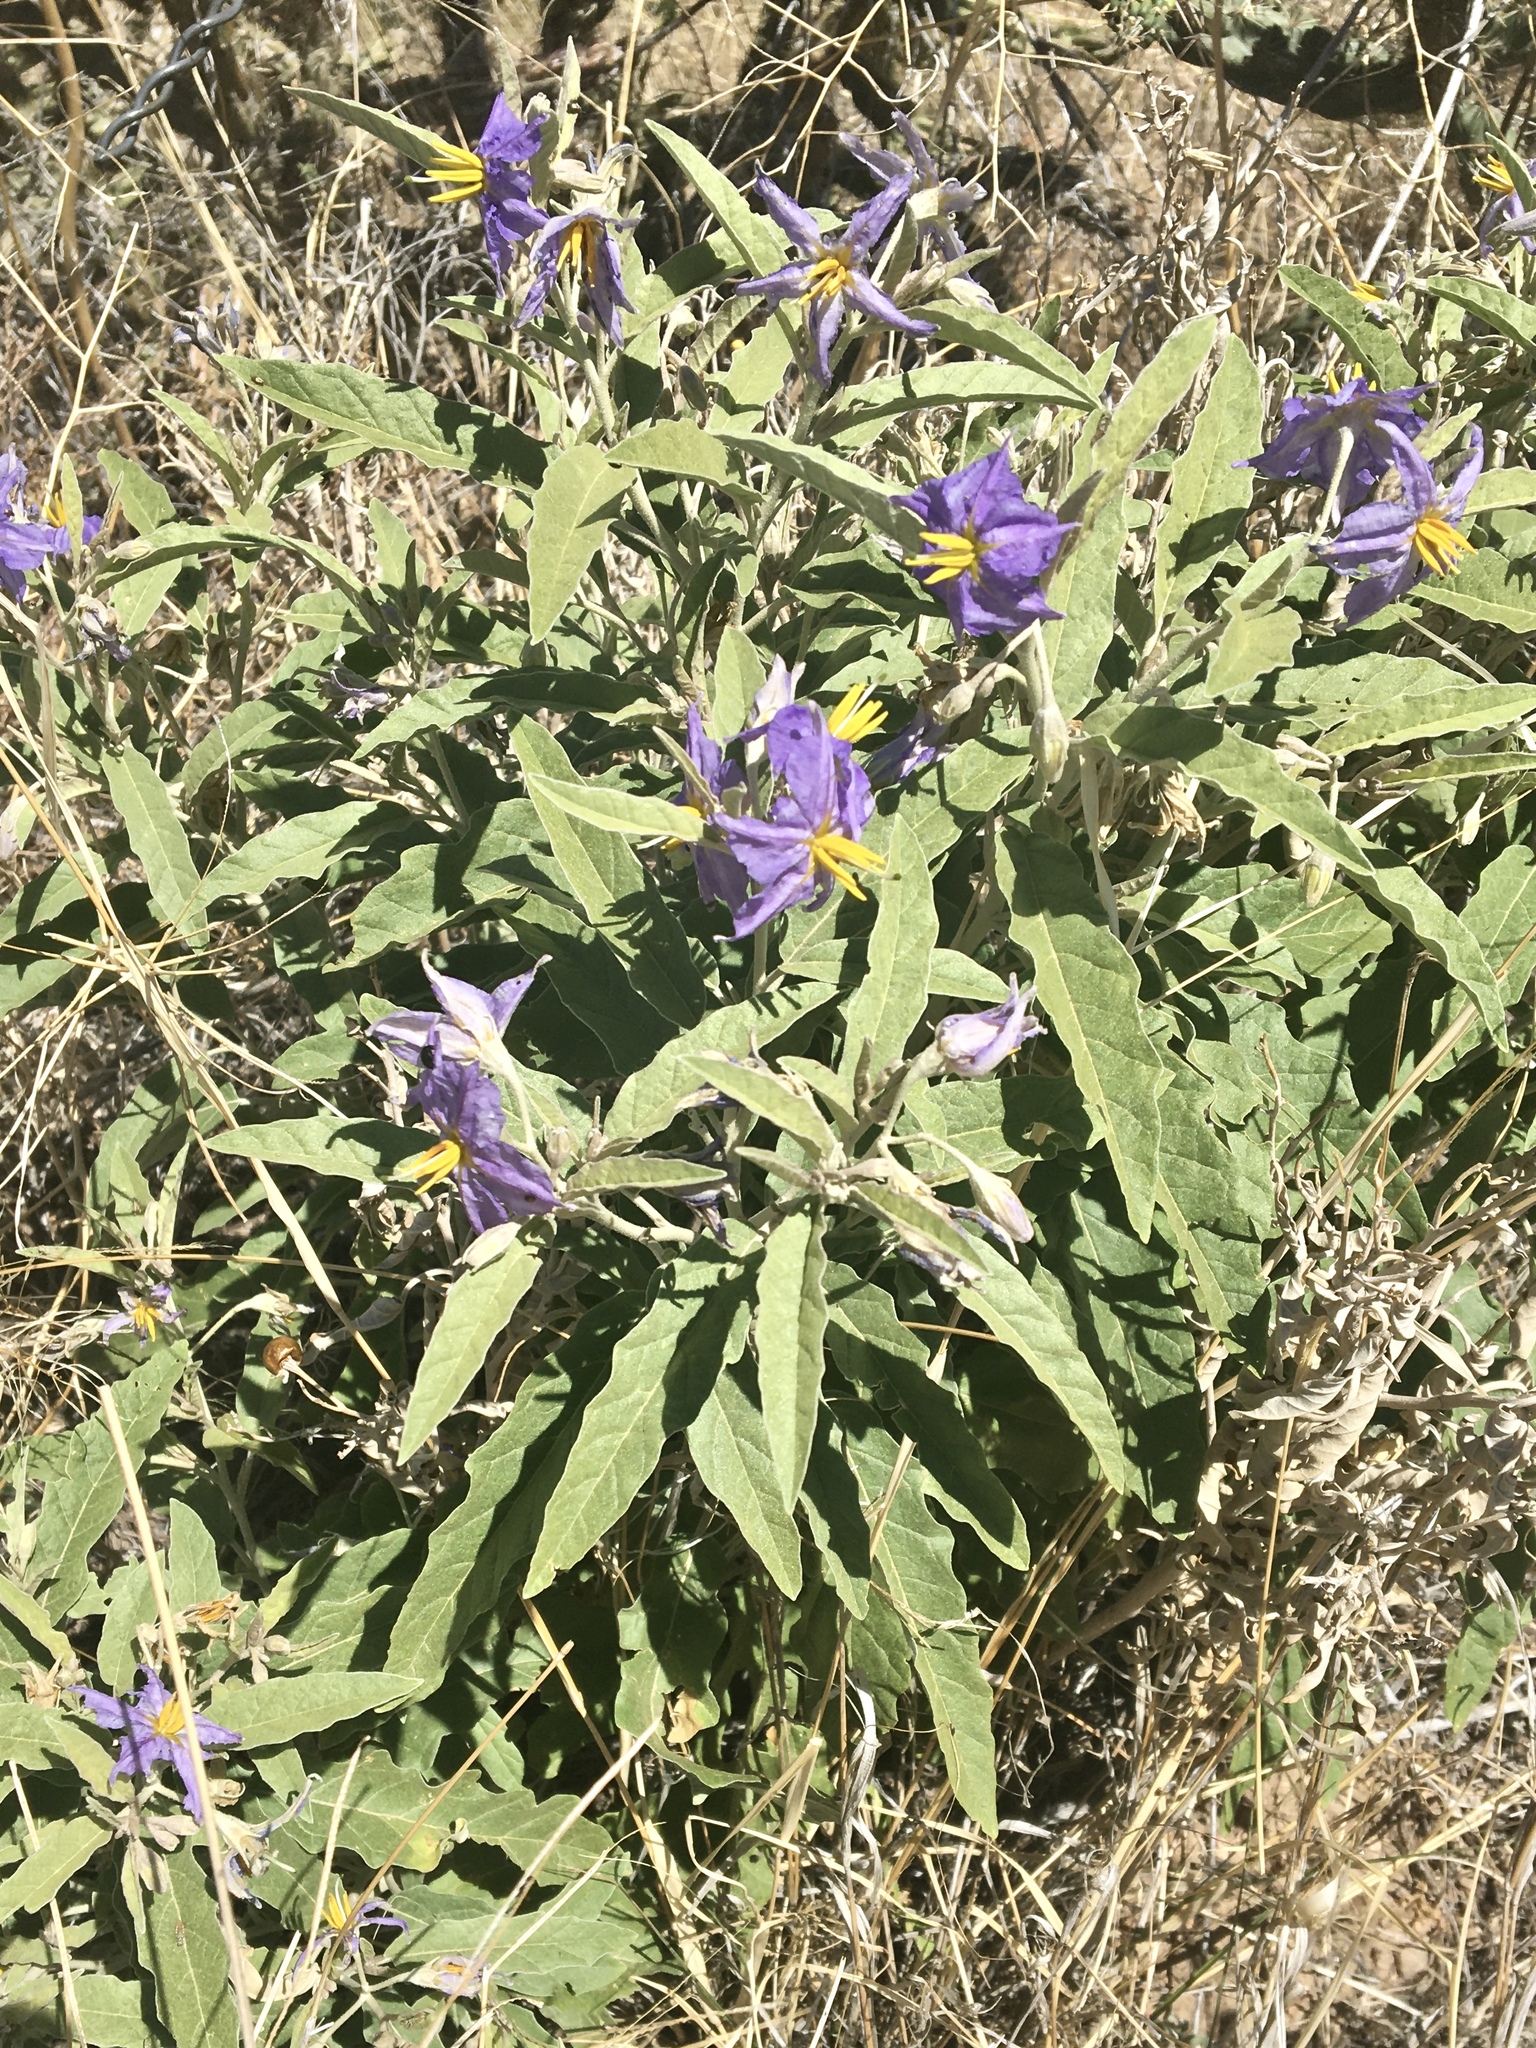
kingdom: Plantae
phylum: Tracheophyta
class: Magnoliopsida
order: Solanales
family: Solanaceae
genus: Solanum
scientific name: Solanum elaeagnifolium
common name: Silverleaf nightshade
